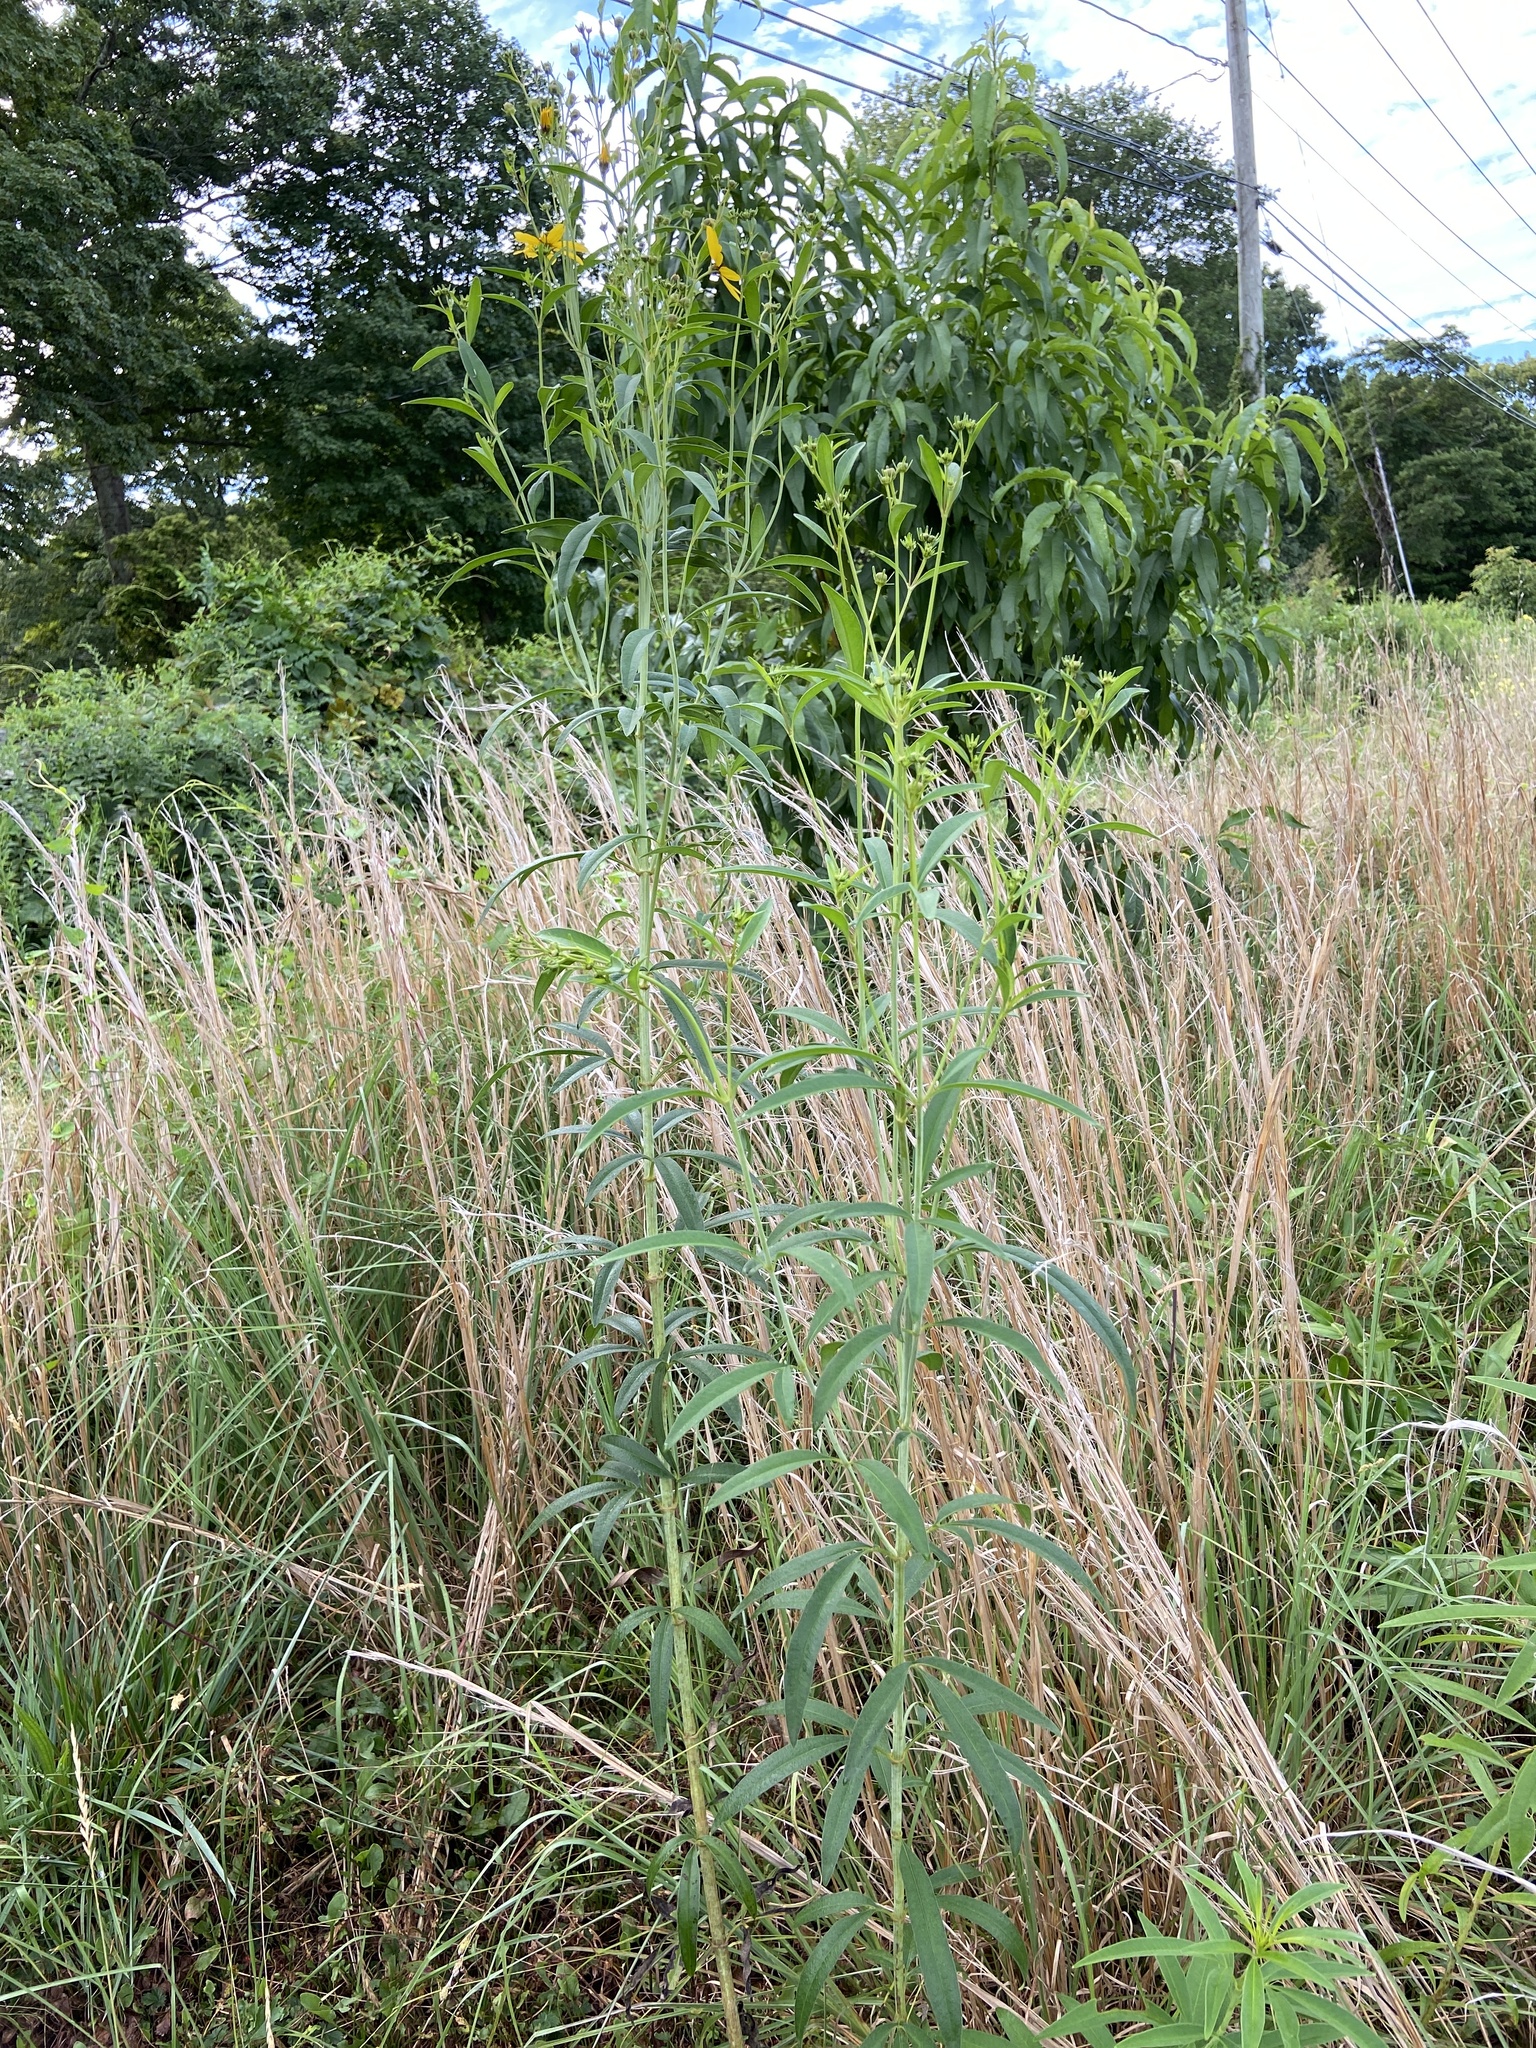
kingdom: Plantae
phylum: Tracheophyta
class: Magnoliopsida
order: Asterales
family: Asteraceae
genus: Coreopsis
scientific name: Coreopsis tripteris
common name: Tall coreopsis
